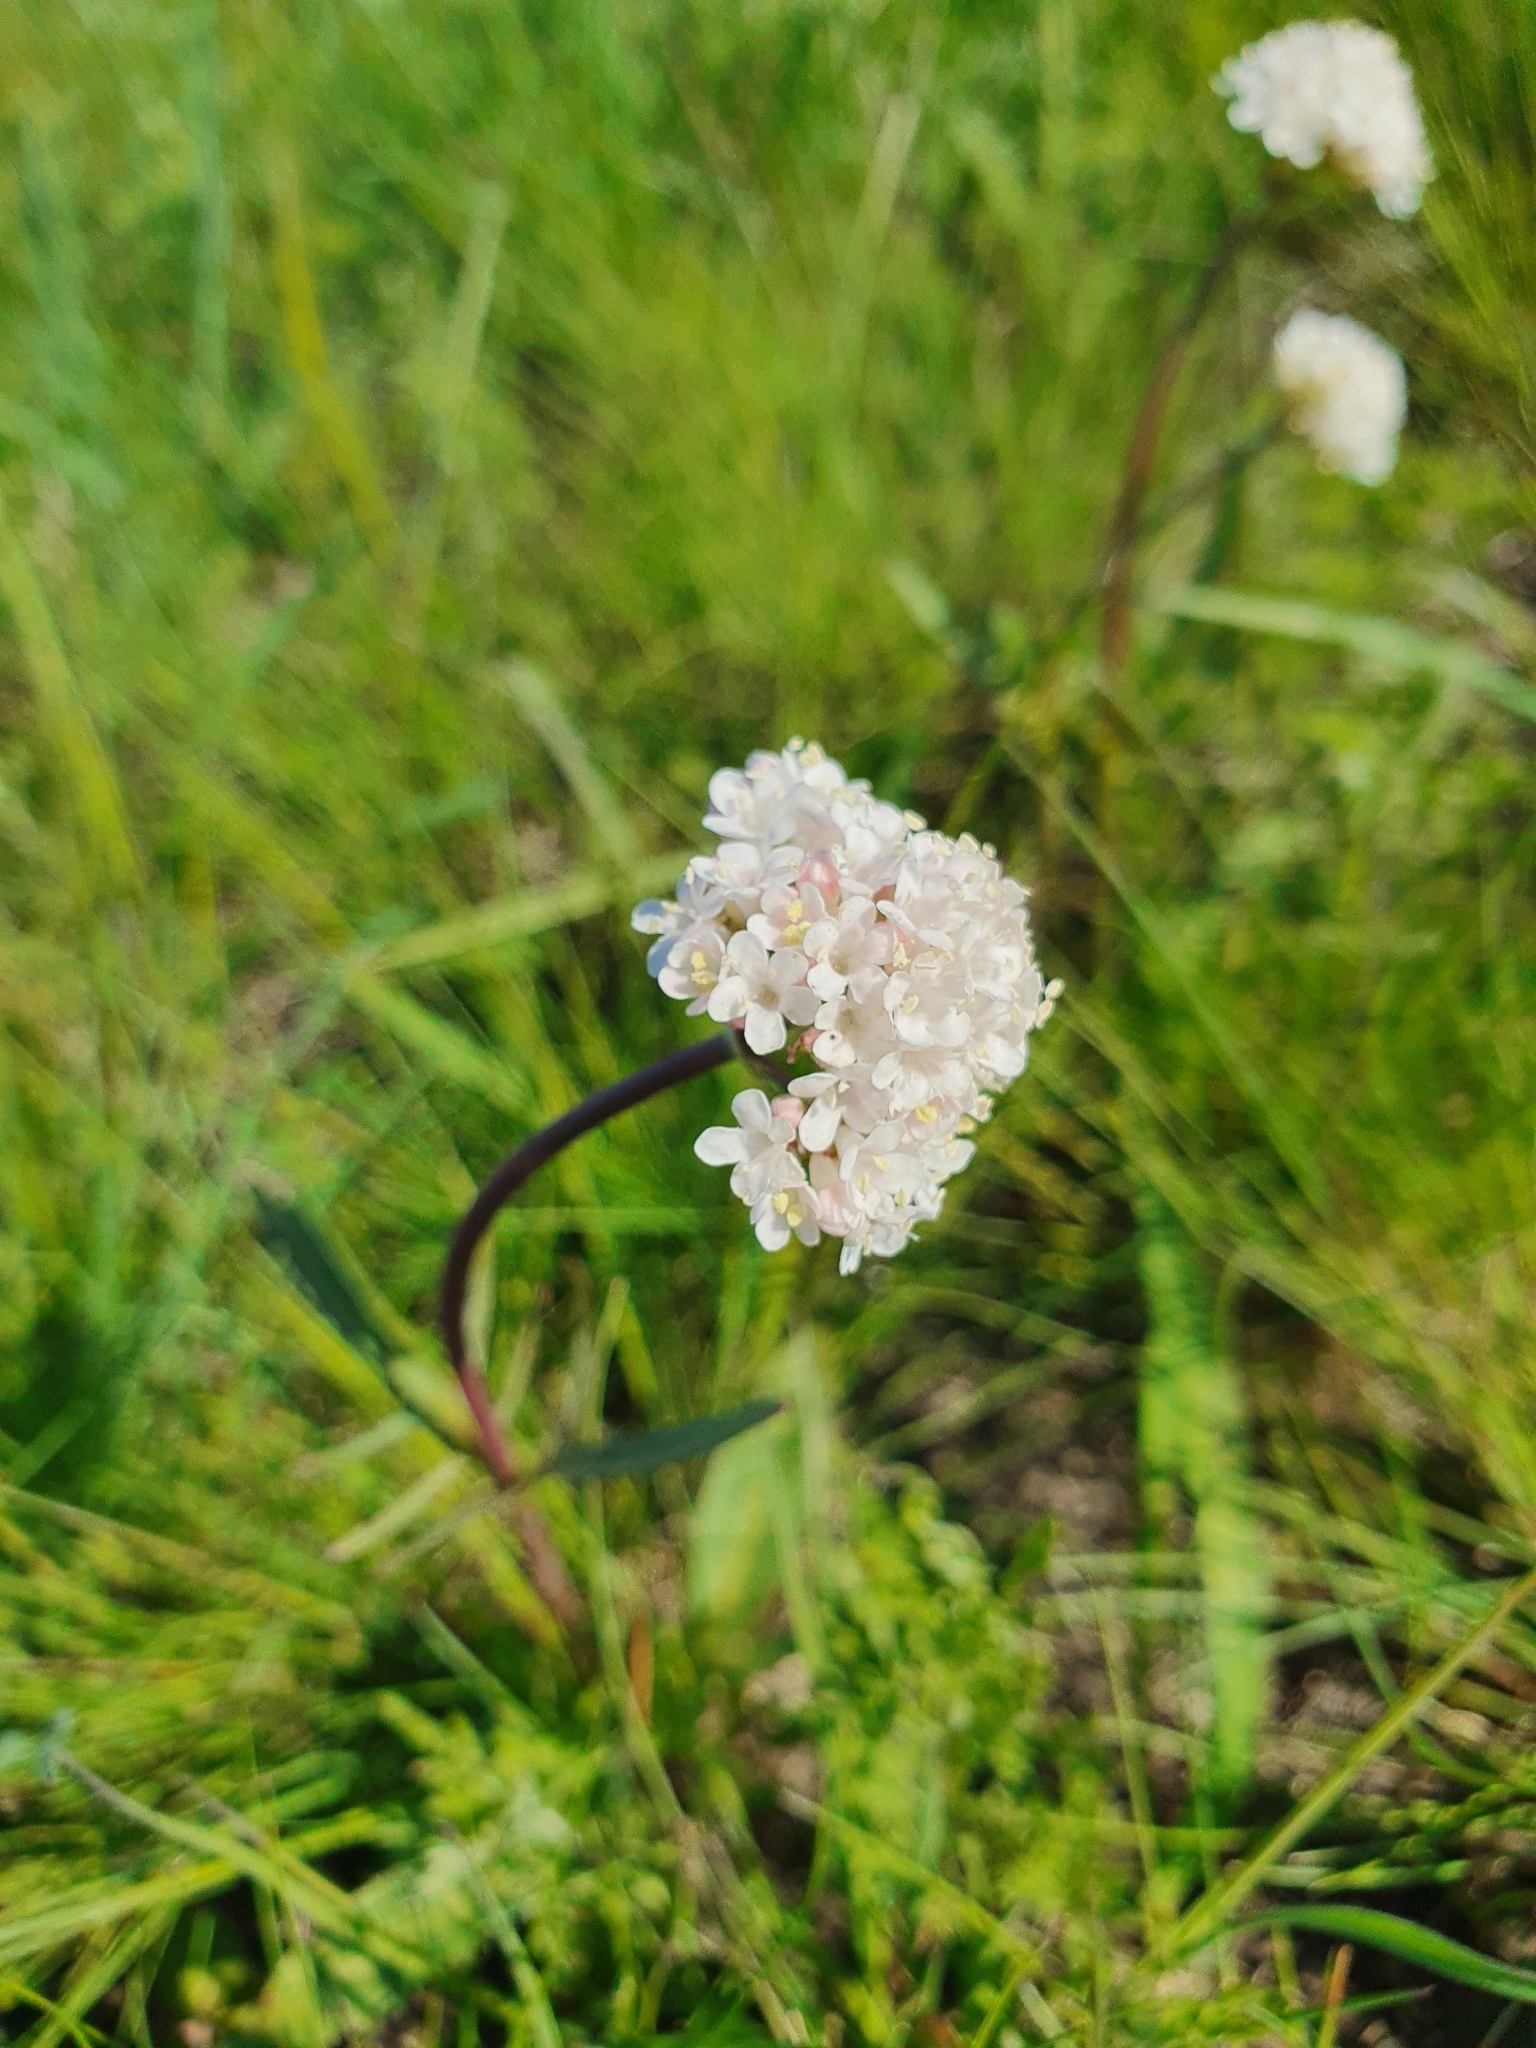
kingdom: Plantae
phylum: Tracheophyta
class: Magnoliopsida
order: Dipsacales
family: Caprifoliaceae
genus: Valeriana
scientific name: Valeriana tuberosa
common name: Tuberous valerian
